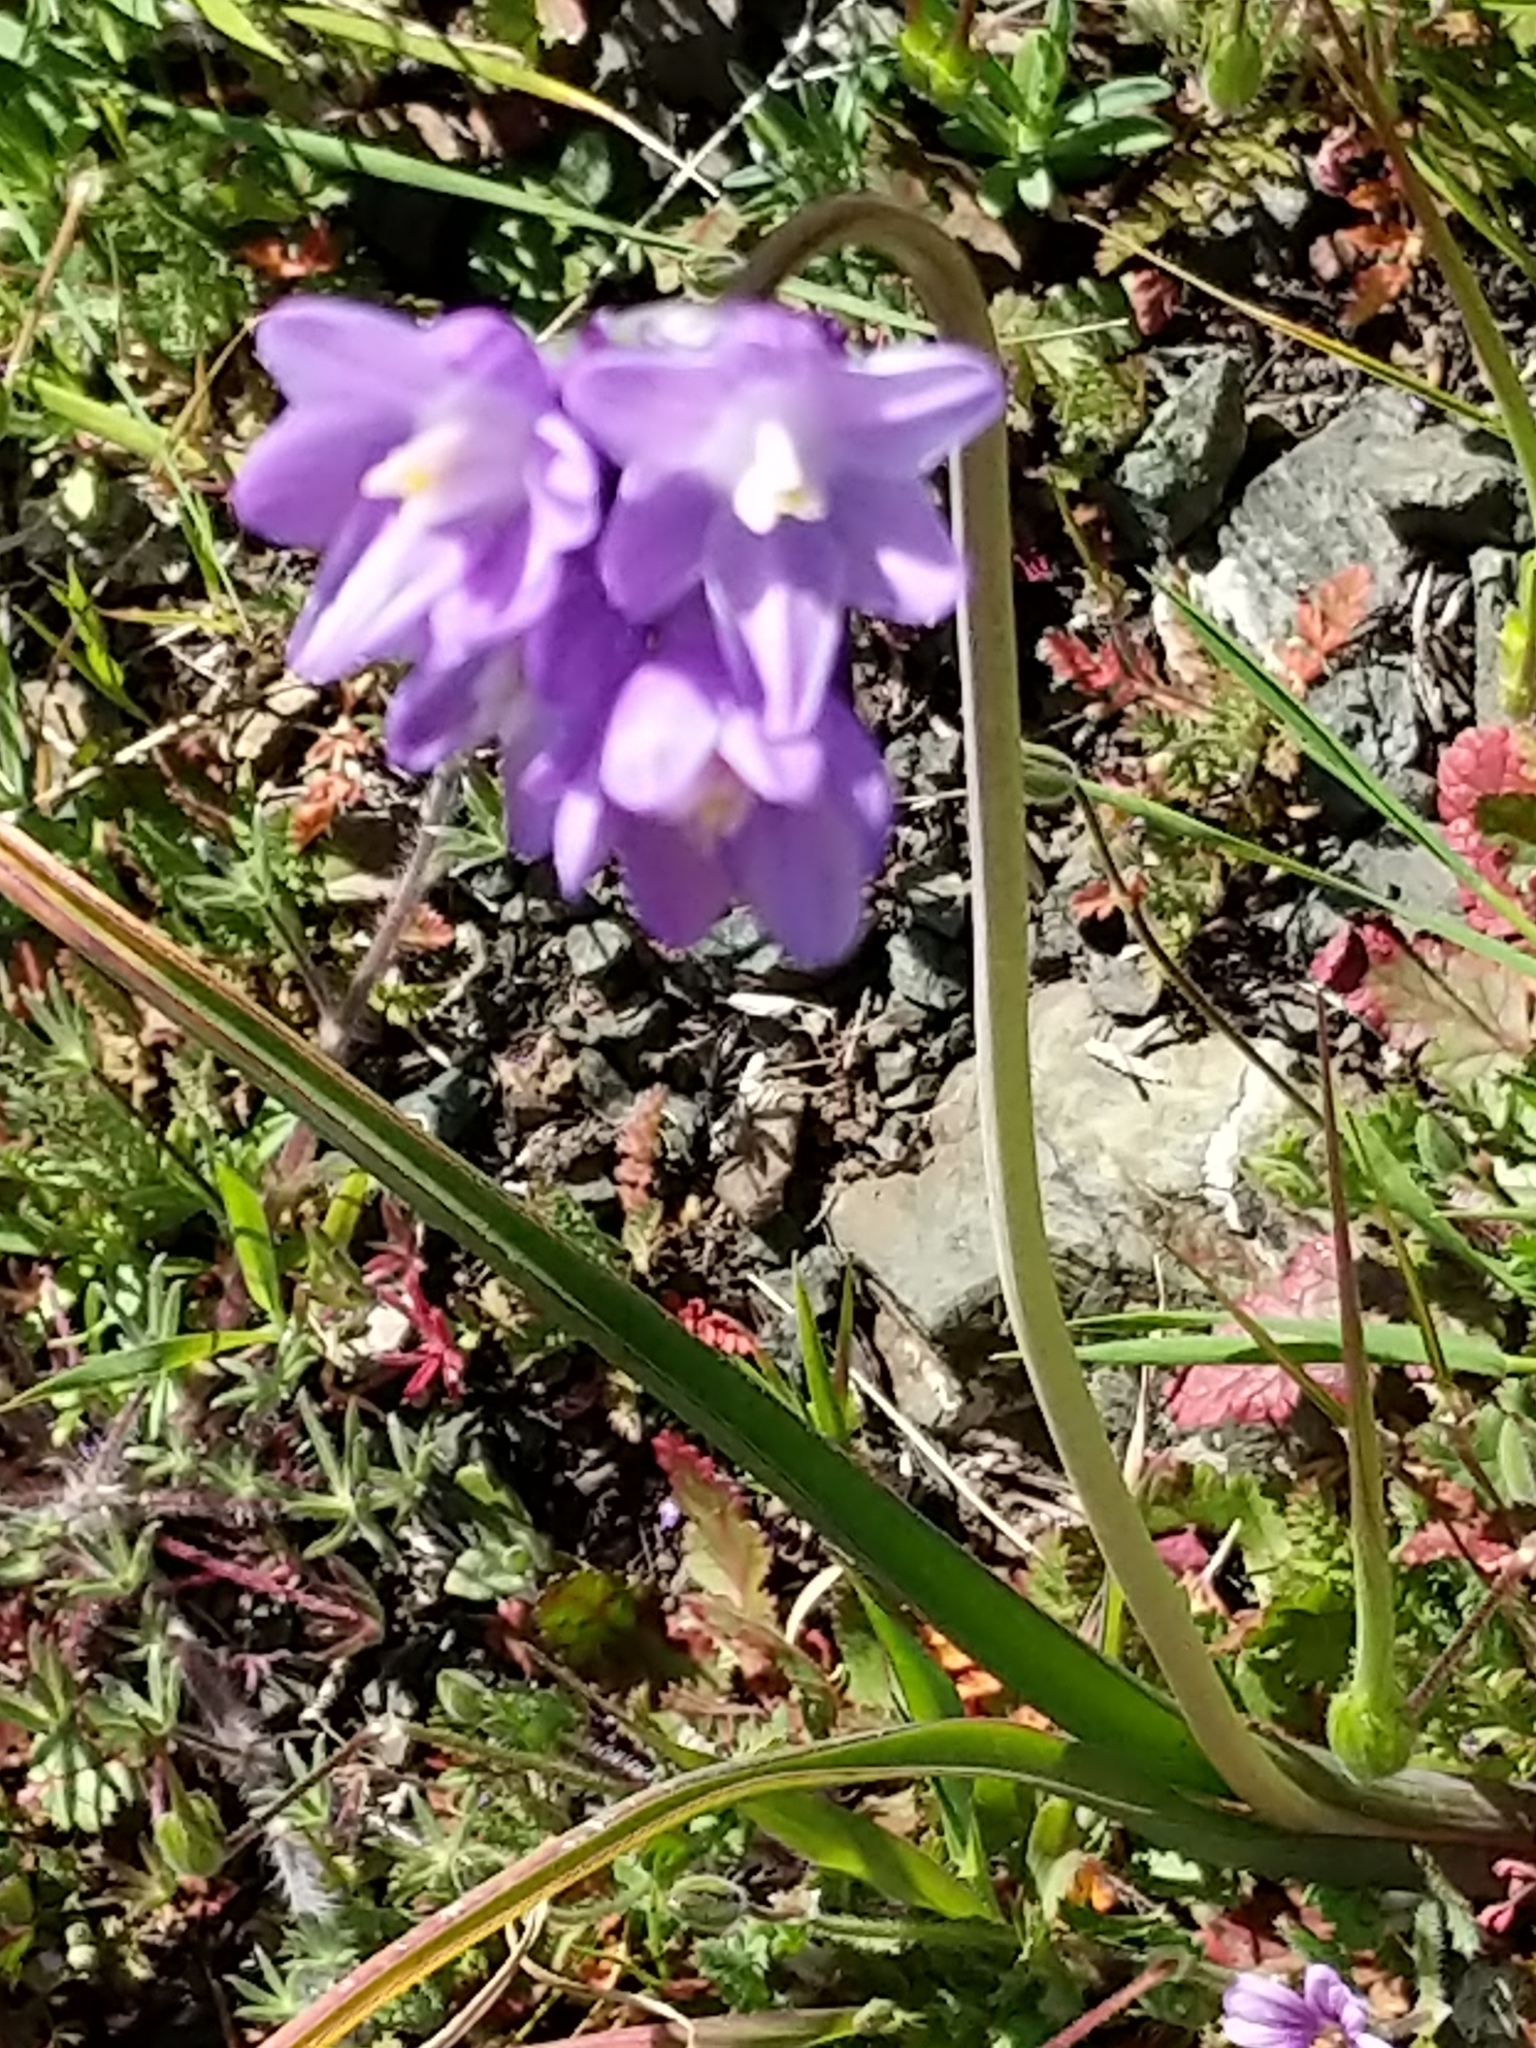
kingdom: Plantae
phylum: Tracheophyta
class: Liliopsida
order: Asparagales
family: Asparagaceae
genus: Dipterostemon
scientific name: Dipterostemon capitatus
